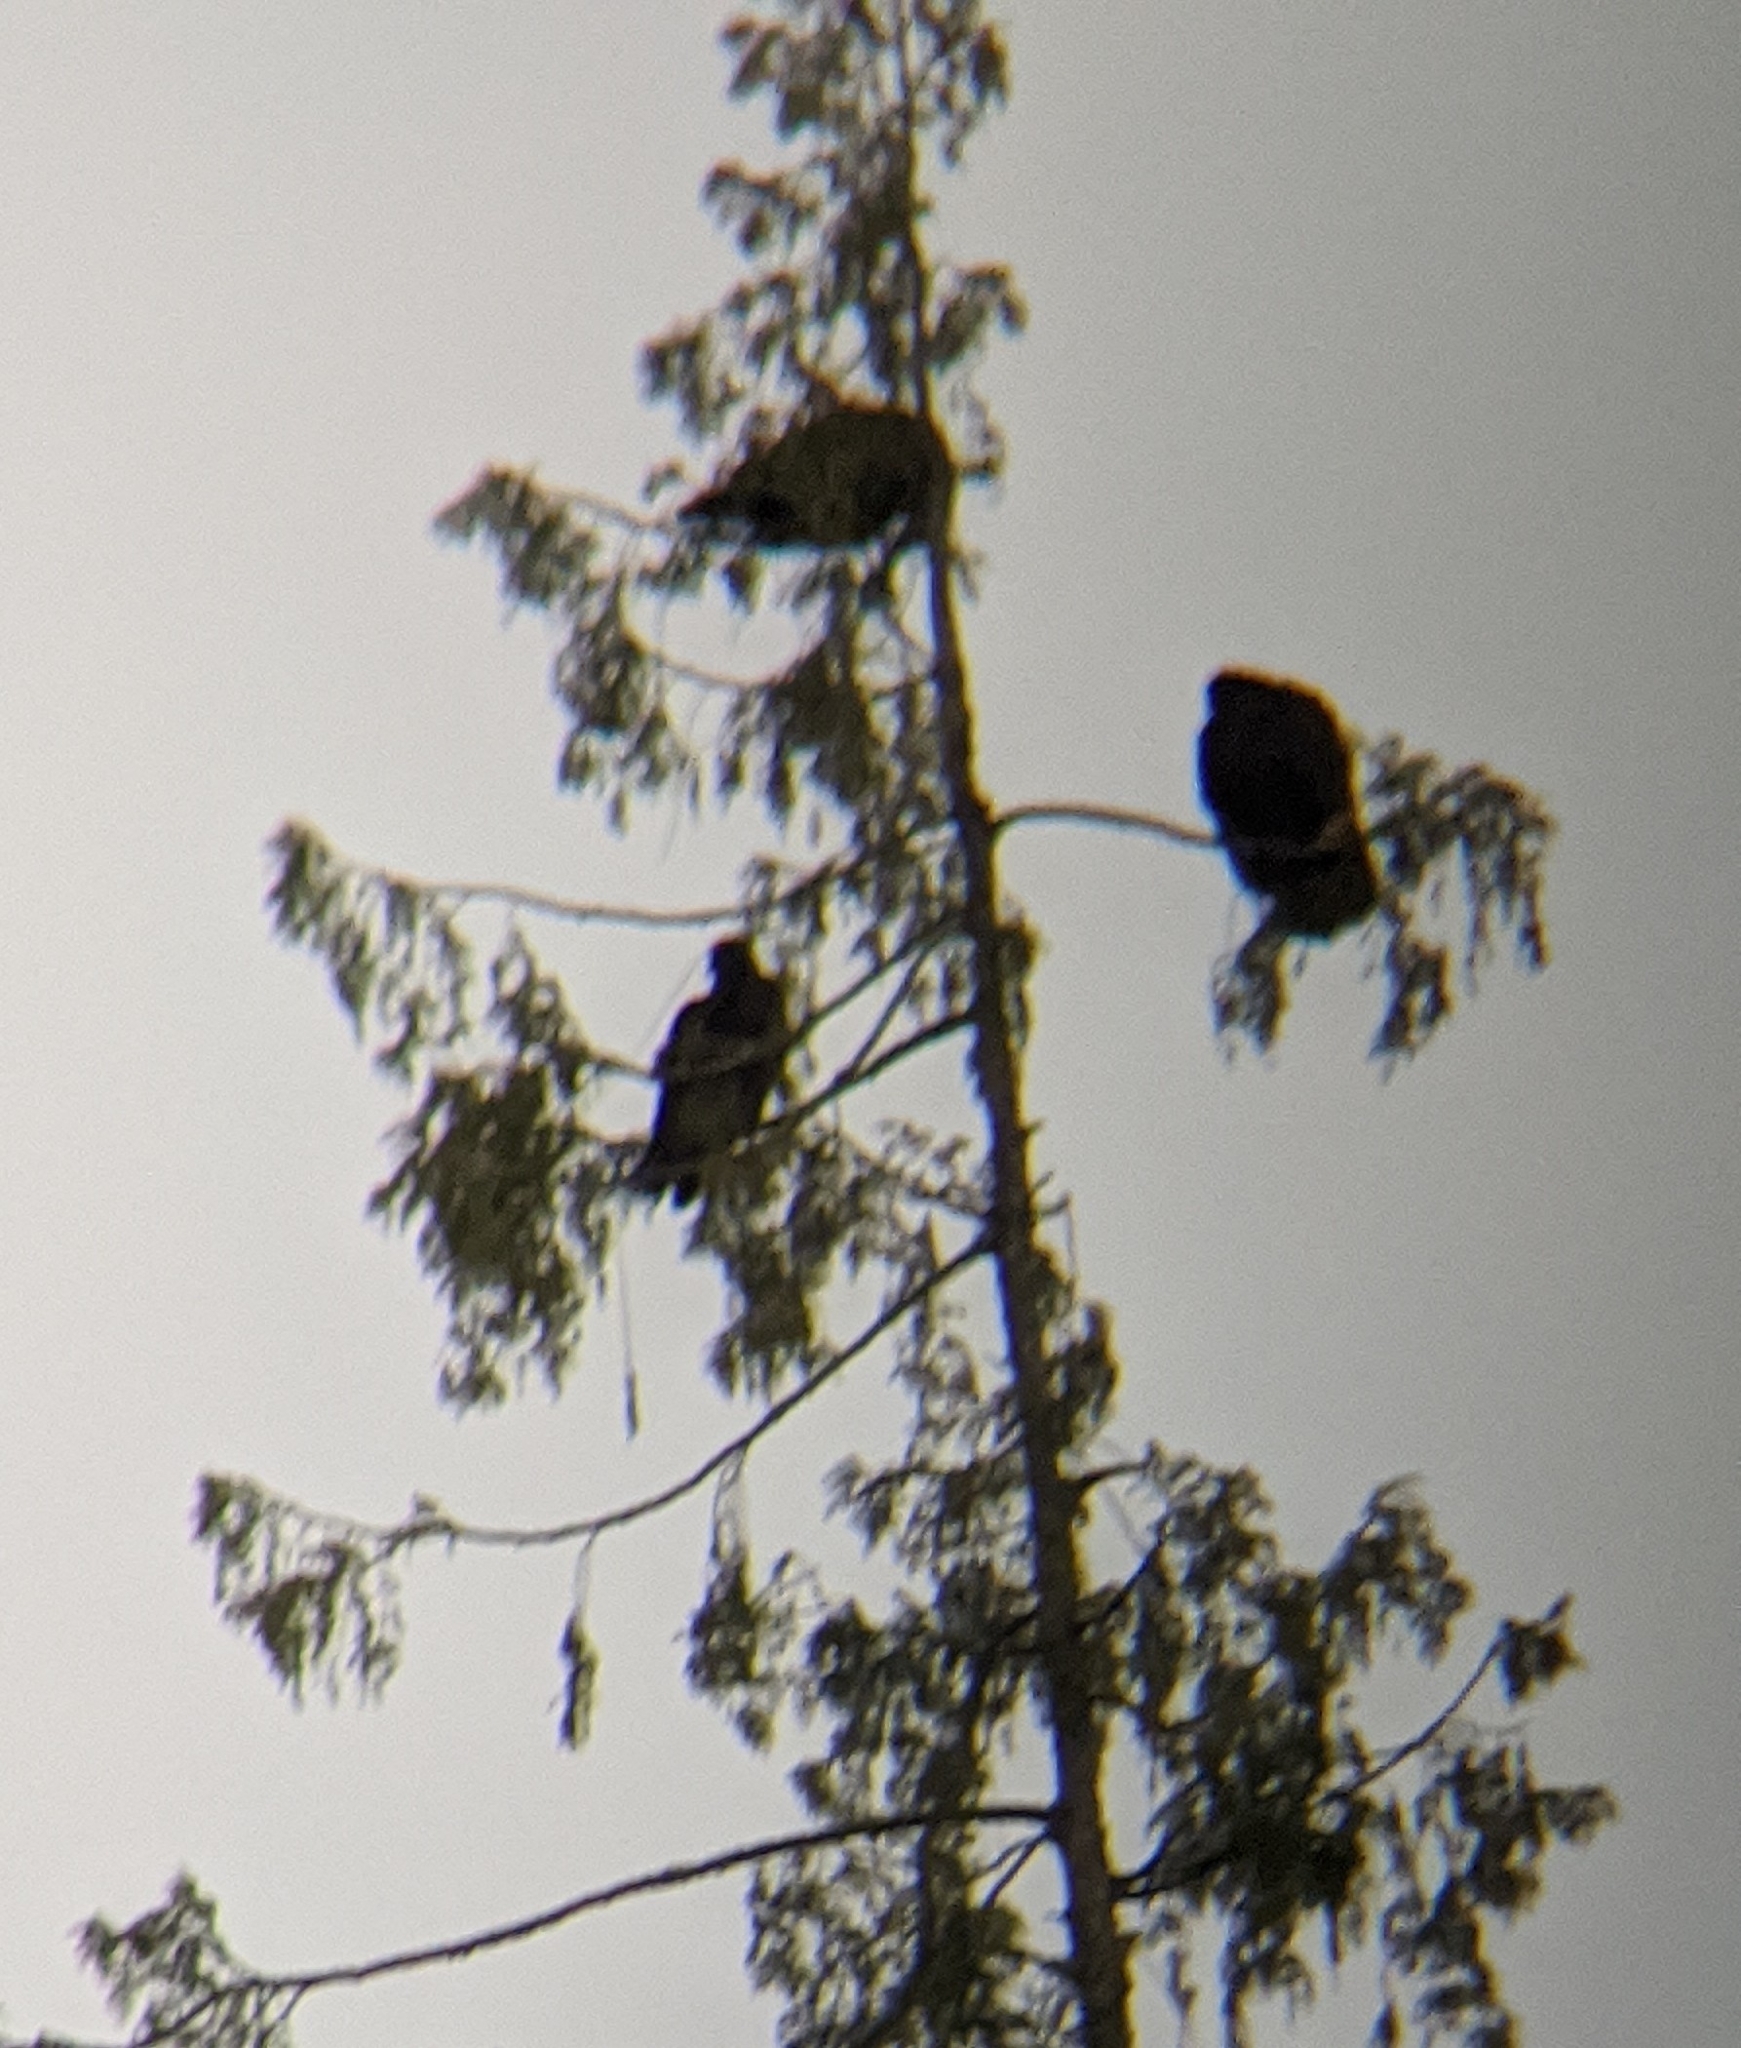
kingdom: Animalia
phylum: Chordata
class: Aves
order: Accipitriformes
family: Cathartidae
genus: Cathartes
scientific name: Cathartes aura
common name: Turkey vulture
